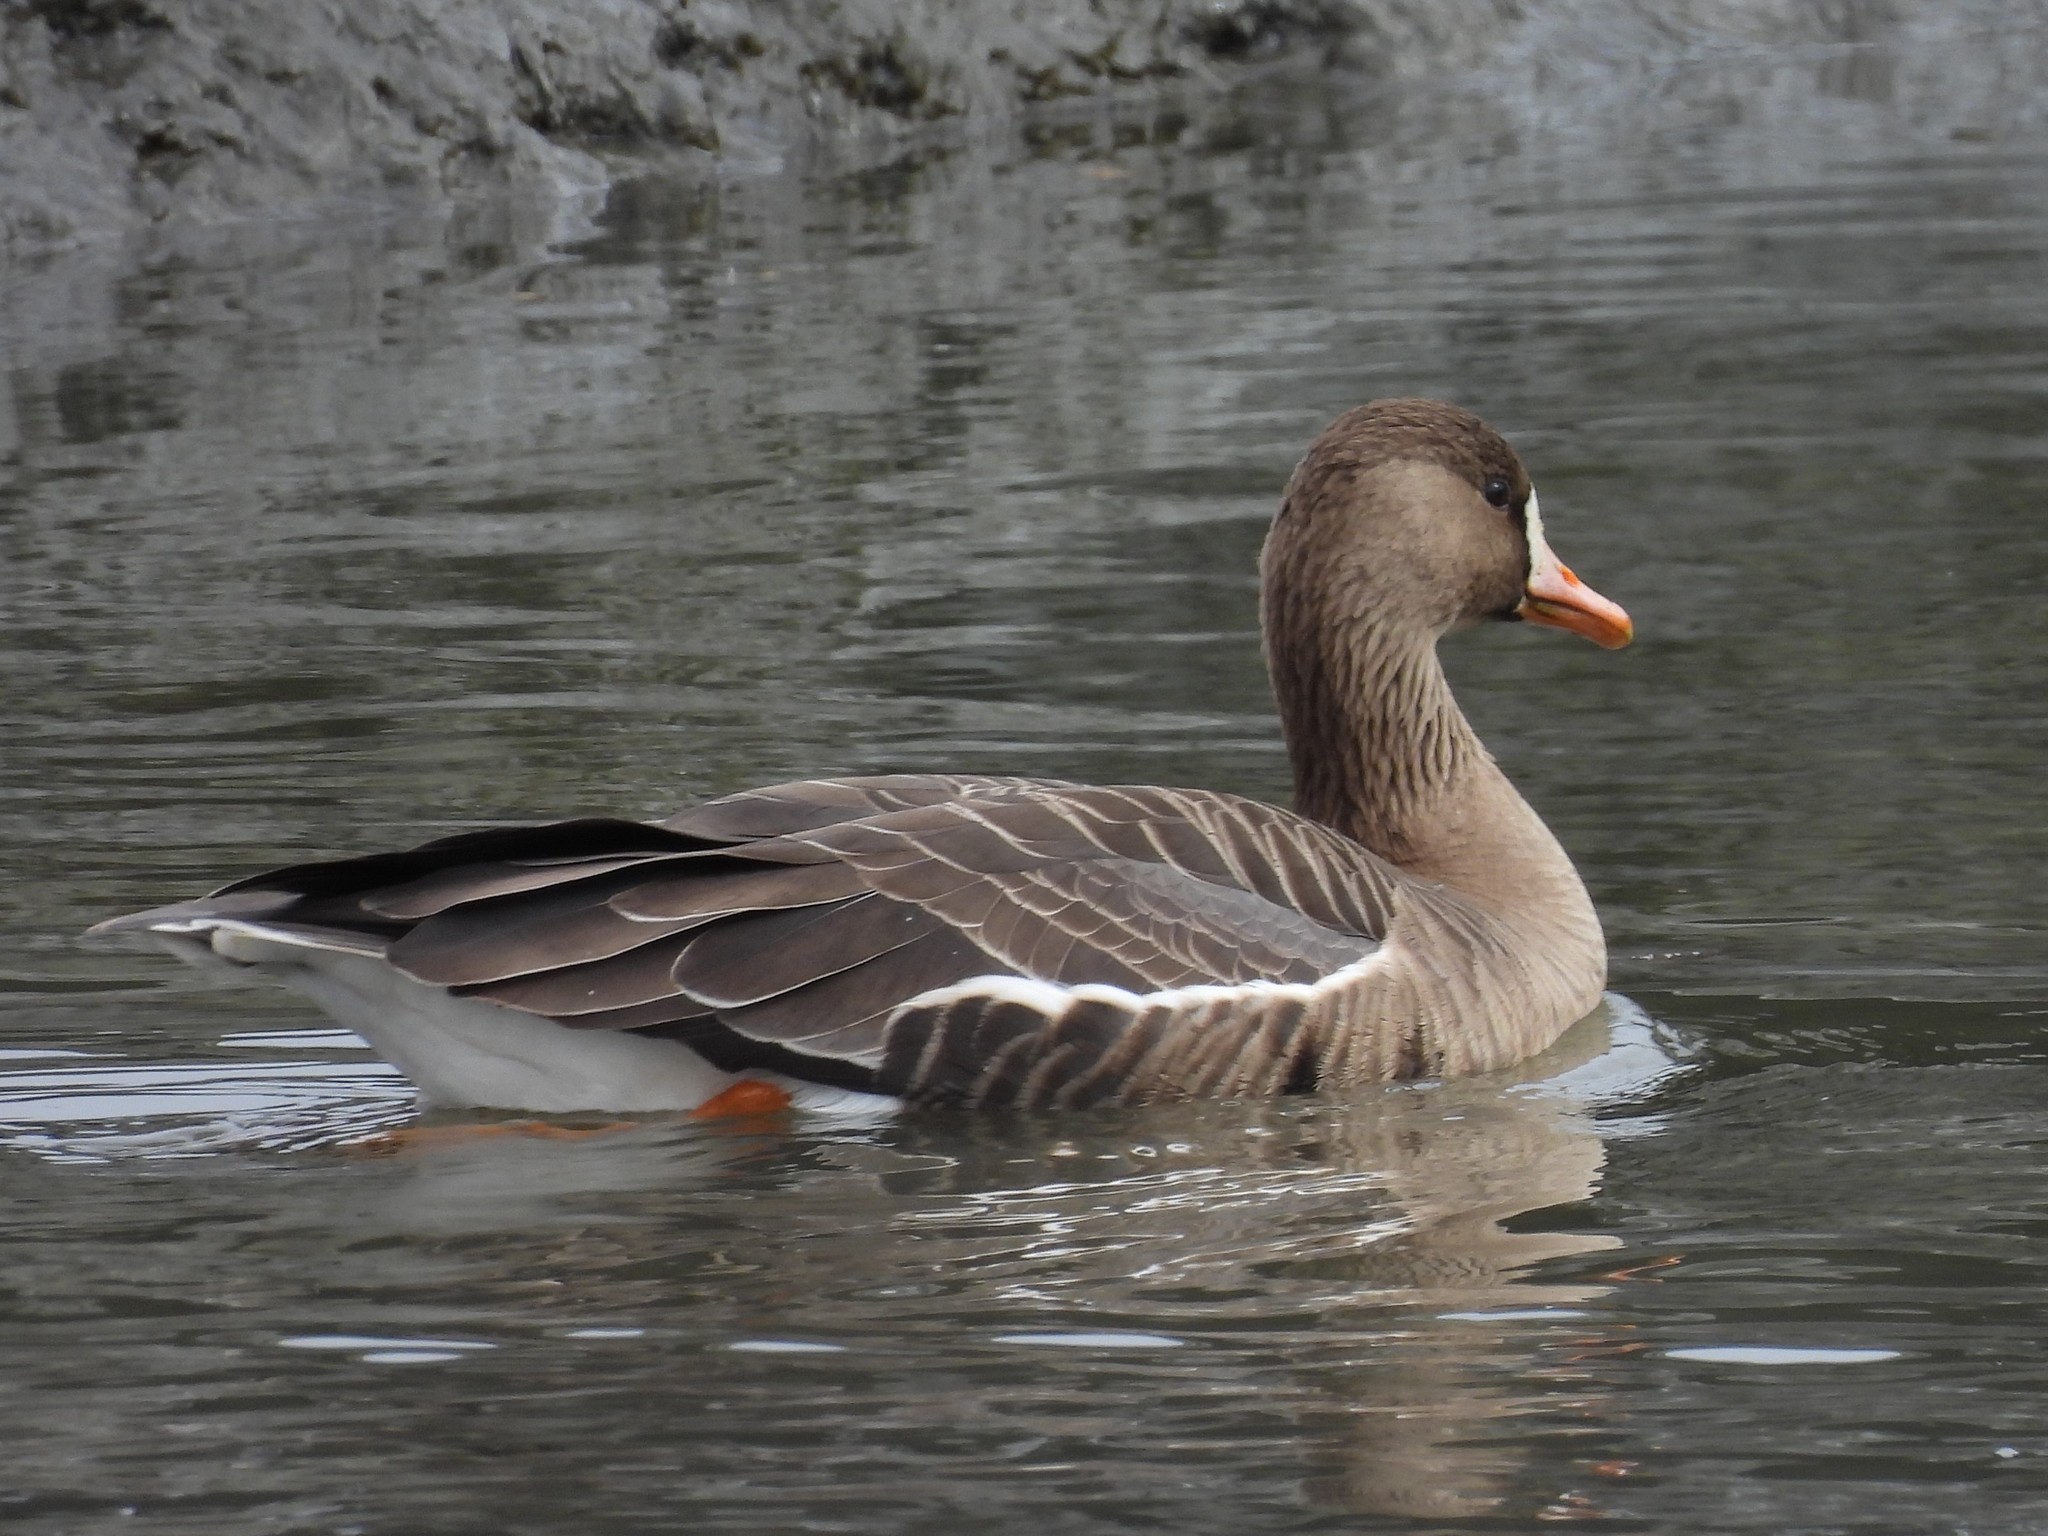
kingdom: Animalia
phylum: Chordata
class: Aves
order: Anseriformes
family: Anatidae
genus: Anser
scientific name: Anser albifrons
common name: Greater white-fronted goose
